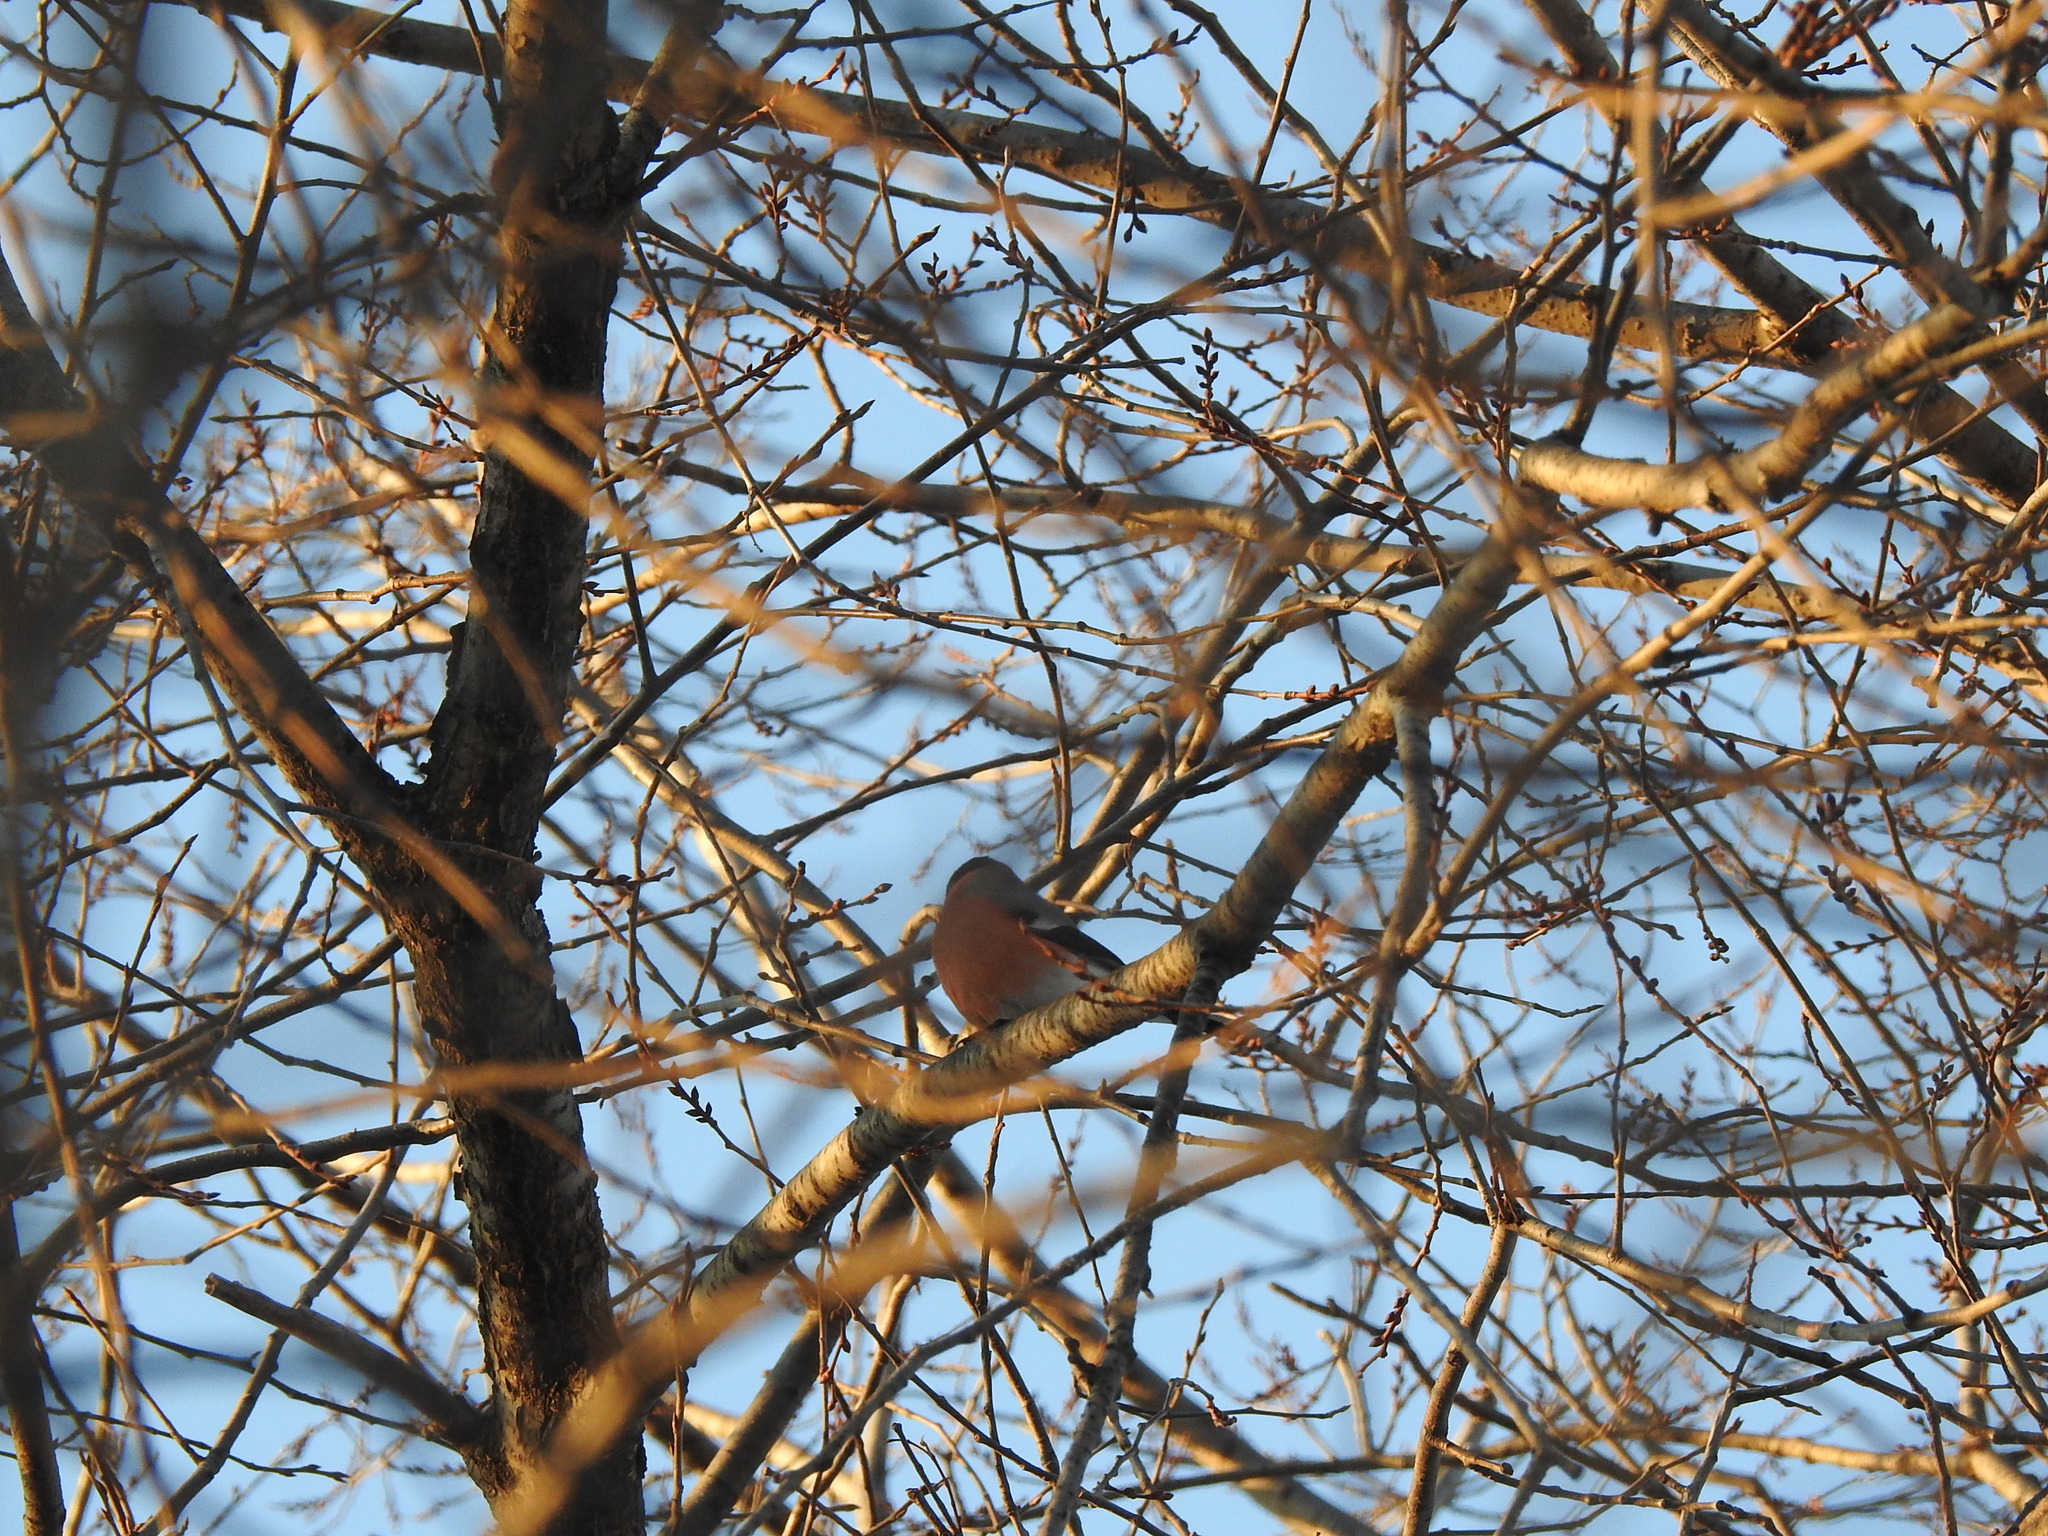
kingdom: Animalia
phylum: Chordata
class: Aves
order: Passeriformes
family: Fringillidae
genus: Pyrrhula
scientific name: Pyrrhula pyrrhula
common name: Eurasian bullfinch
